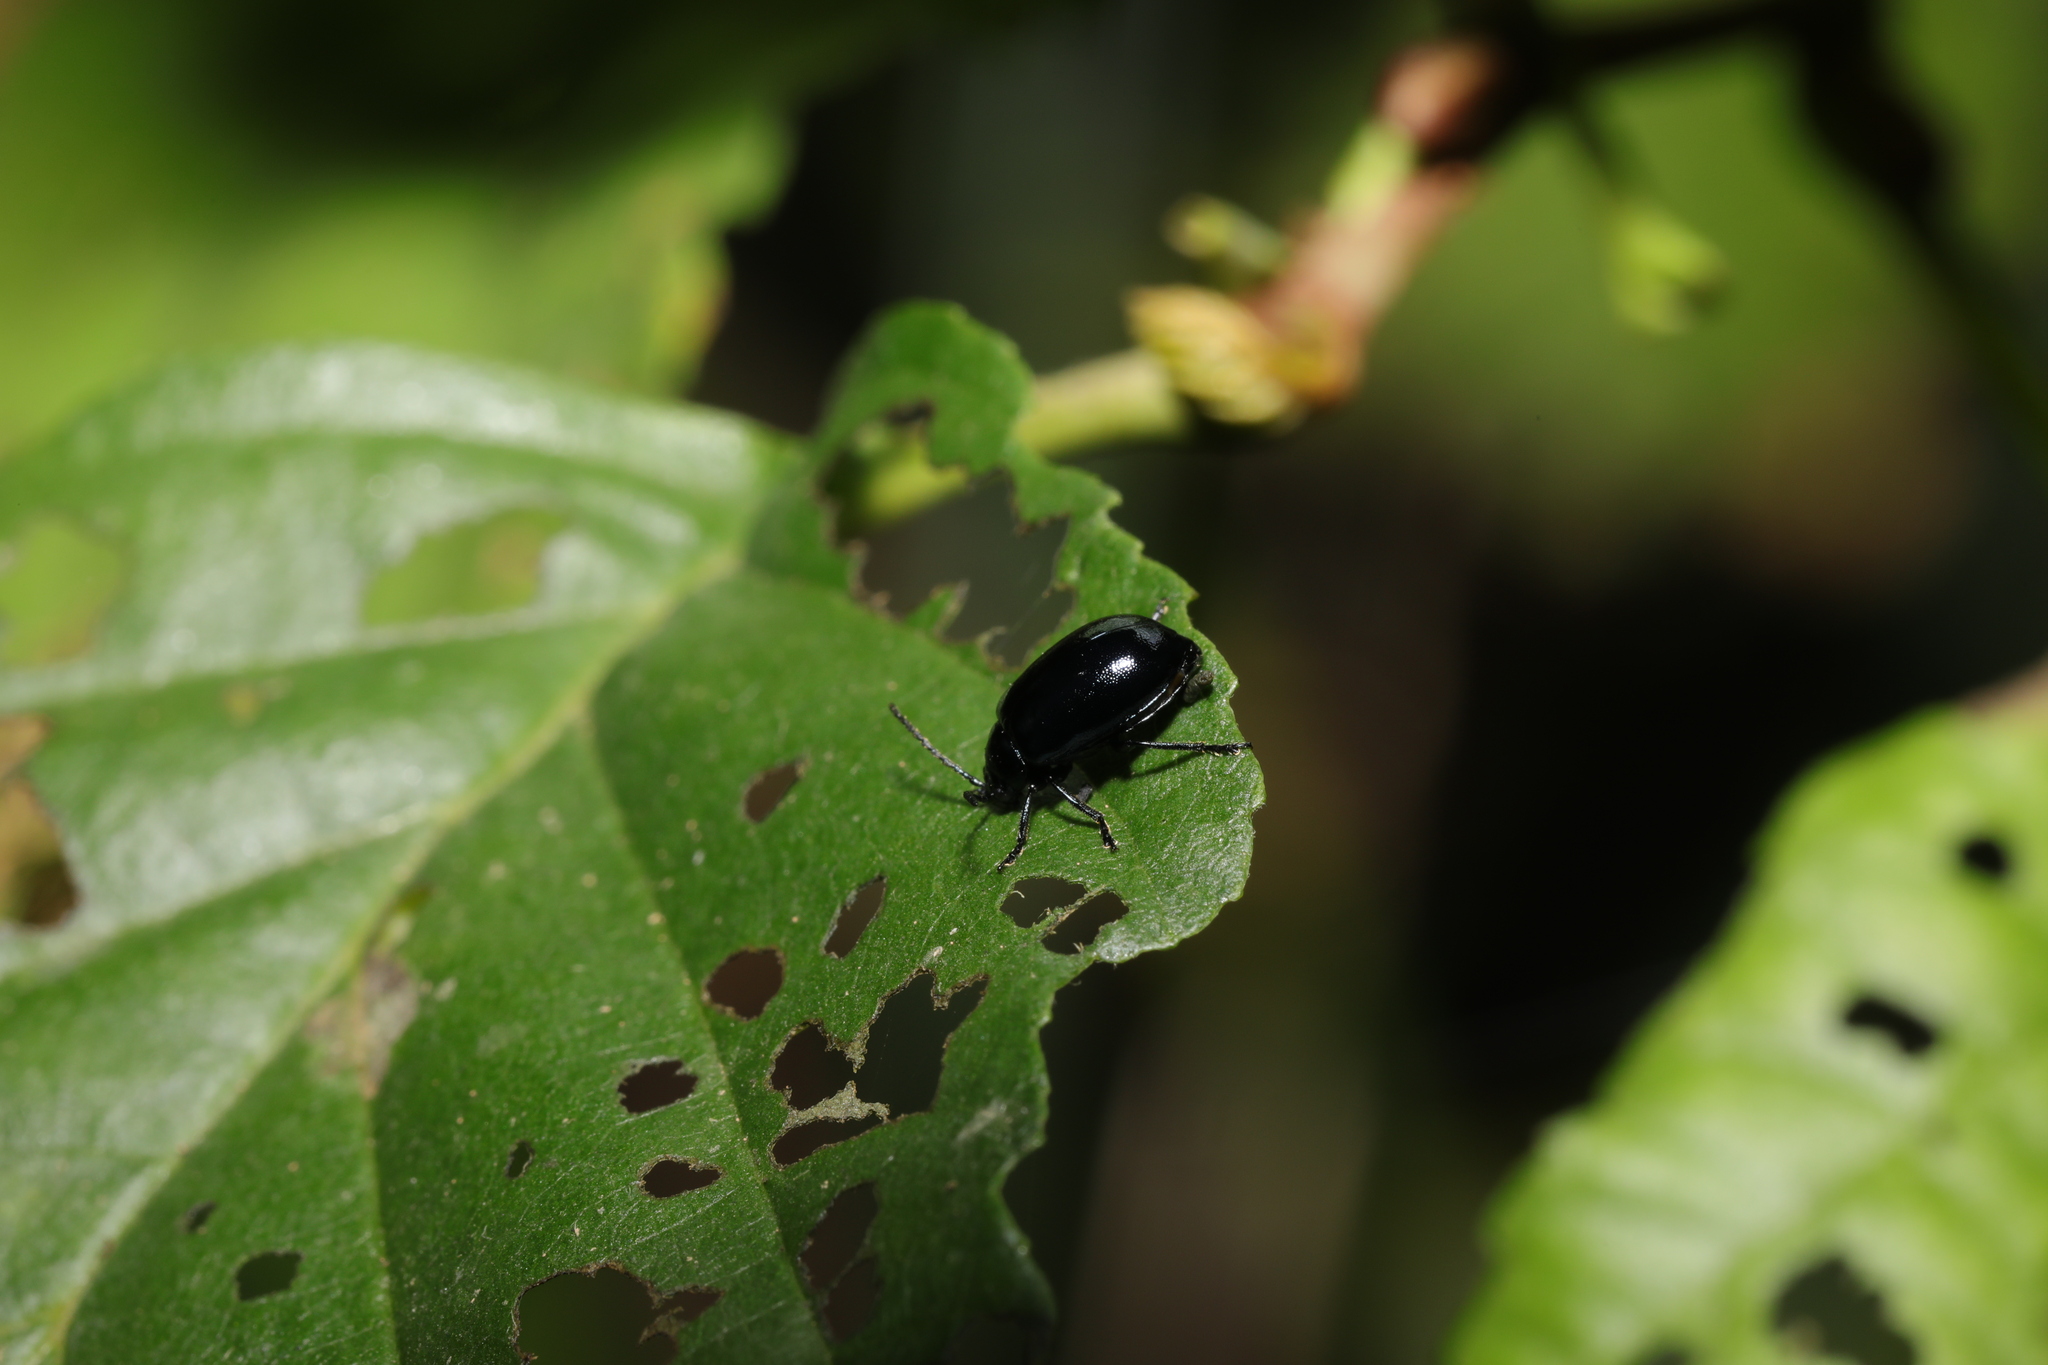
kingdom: Animalia
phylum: Arthropoda
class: Insecta
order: Coleoptera
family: Chrysomelidae
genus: Agelastica
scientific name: Agelastica alni
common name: Alder leaf beetle
